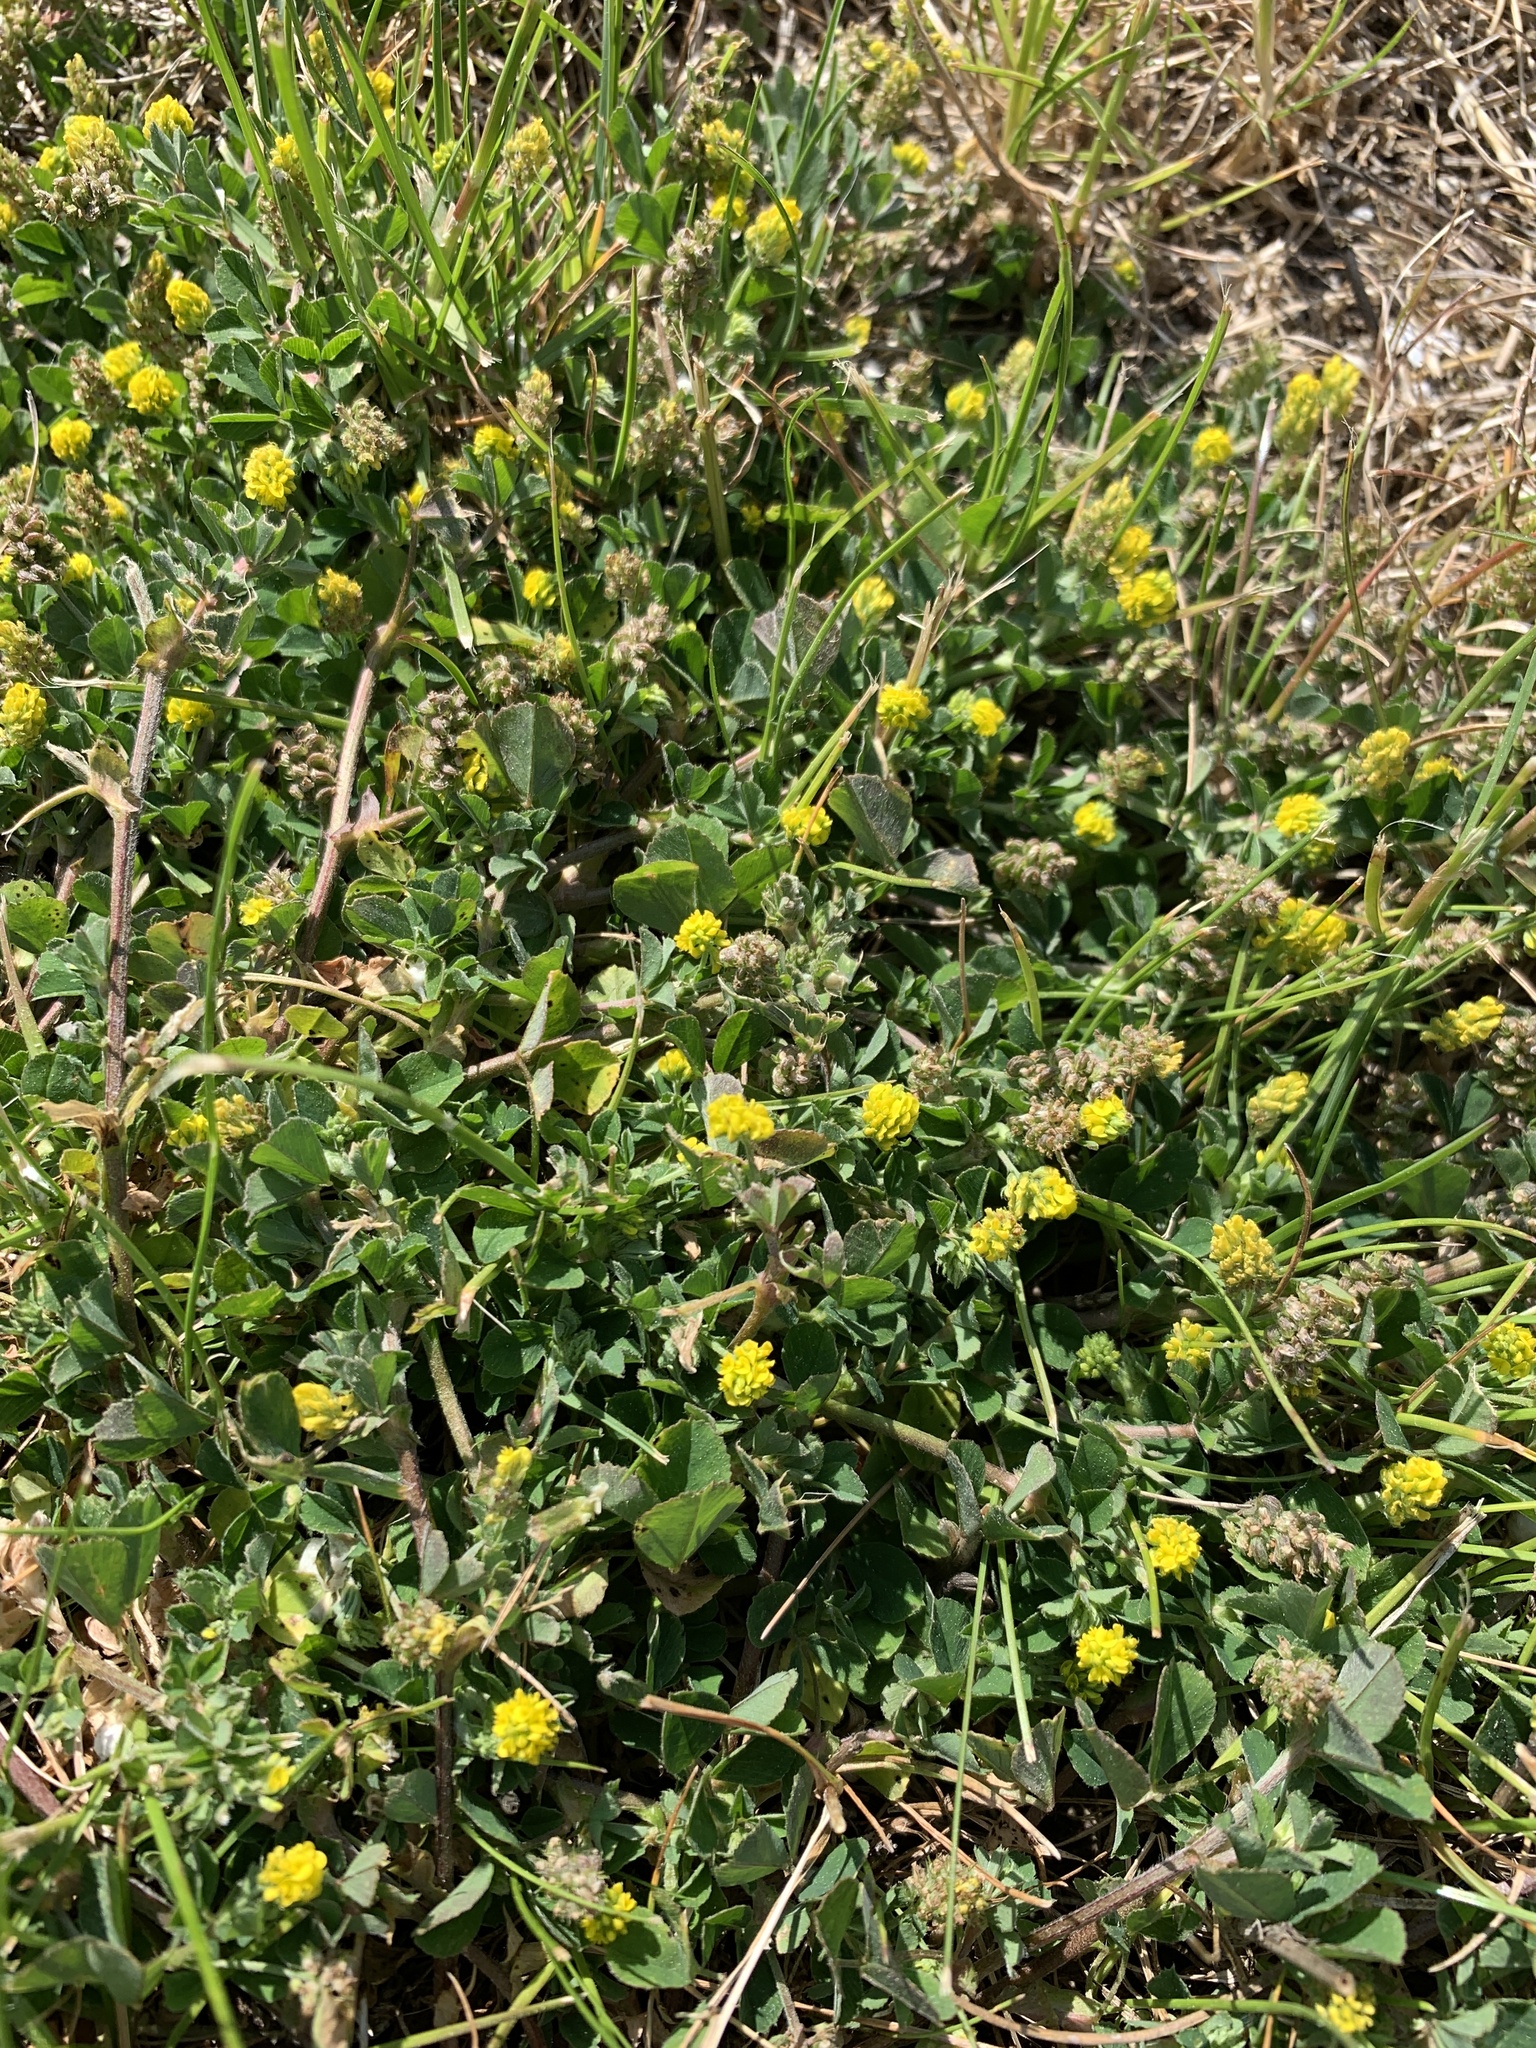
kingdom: Plantae
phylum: Tracheophyta
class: Magnoliopsida
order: Fabales
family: Fabaceae
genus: Medicago
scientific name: Medicago lupulina
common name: Black medick
